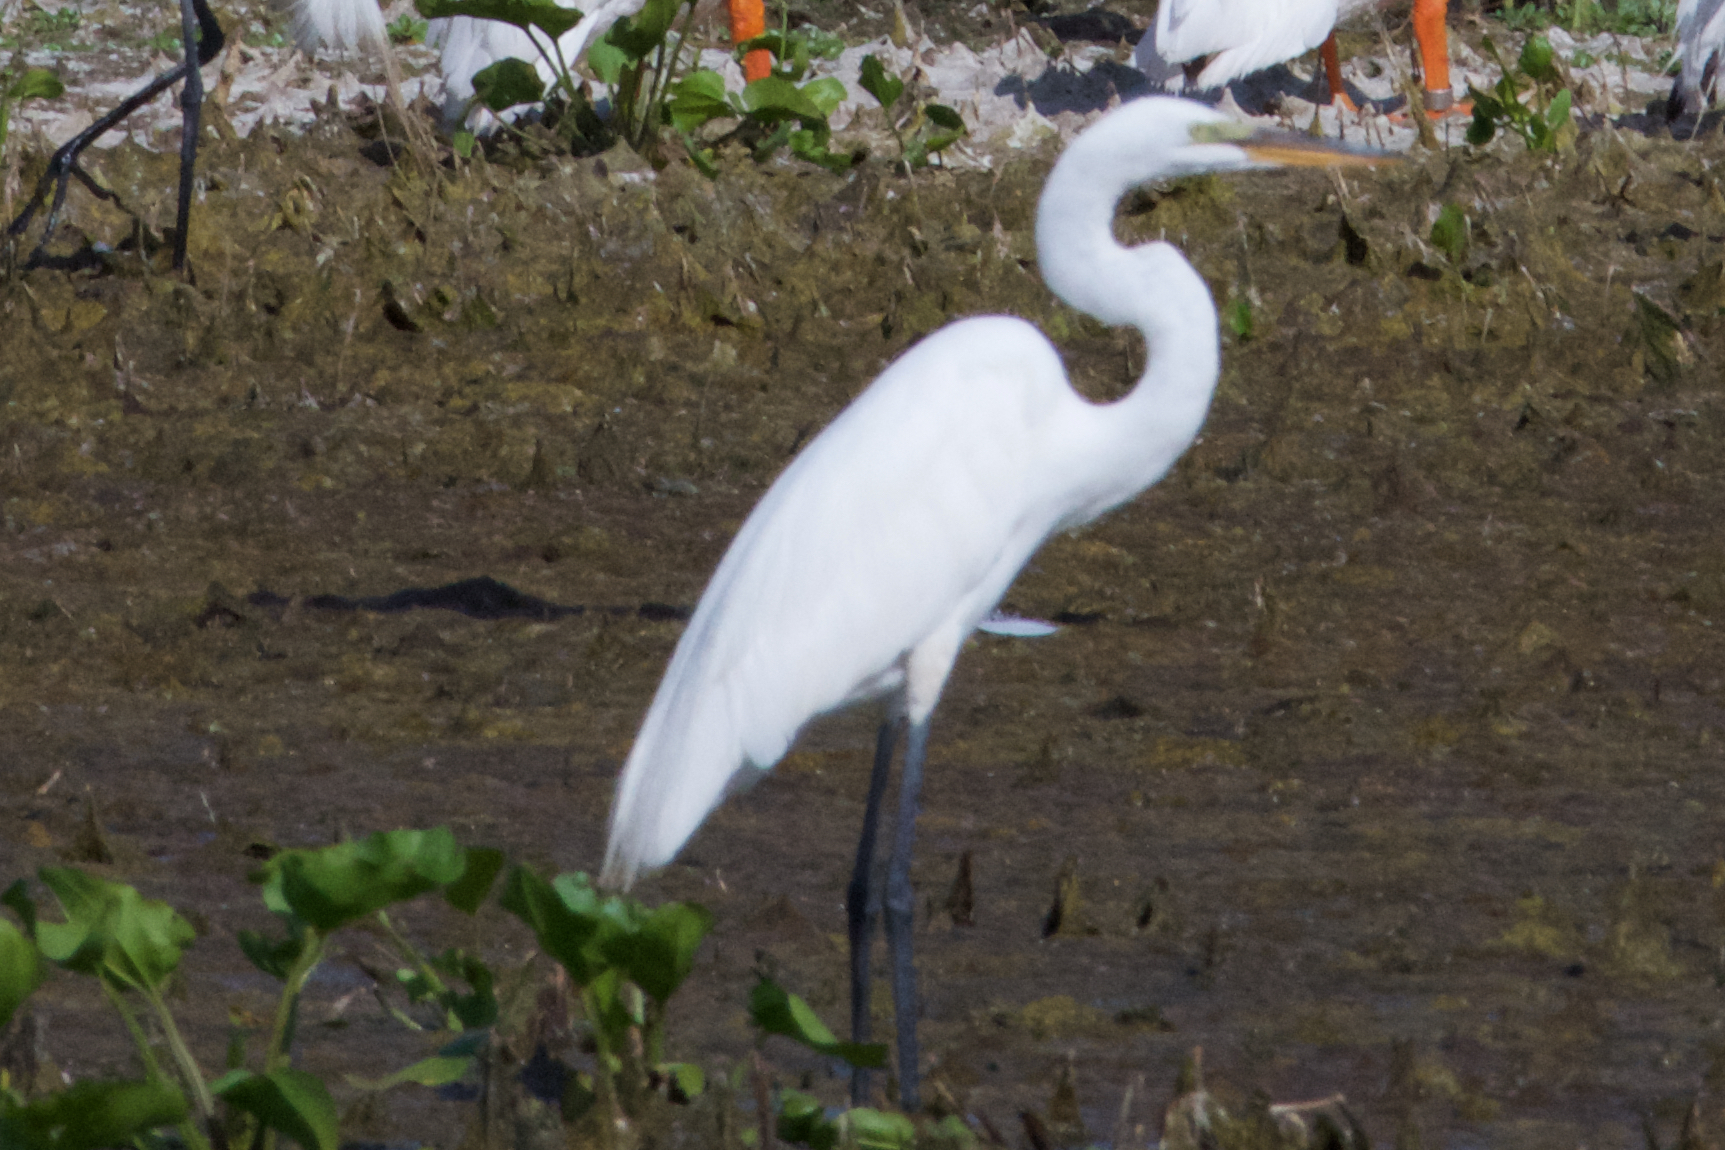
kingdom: Animalia
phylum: Chordata
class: Aves
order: Pelecaniformes
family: Ardeidae
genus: Ardea
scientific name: Ardea alba
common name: Great egret
